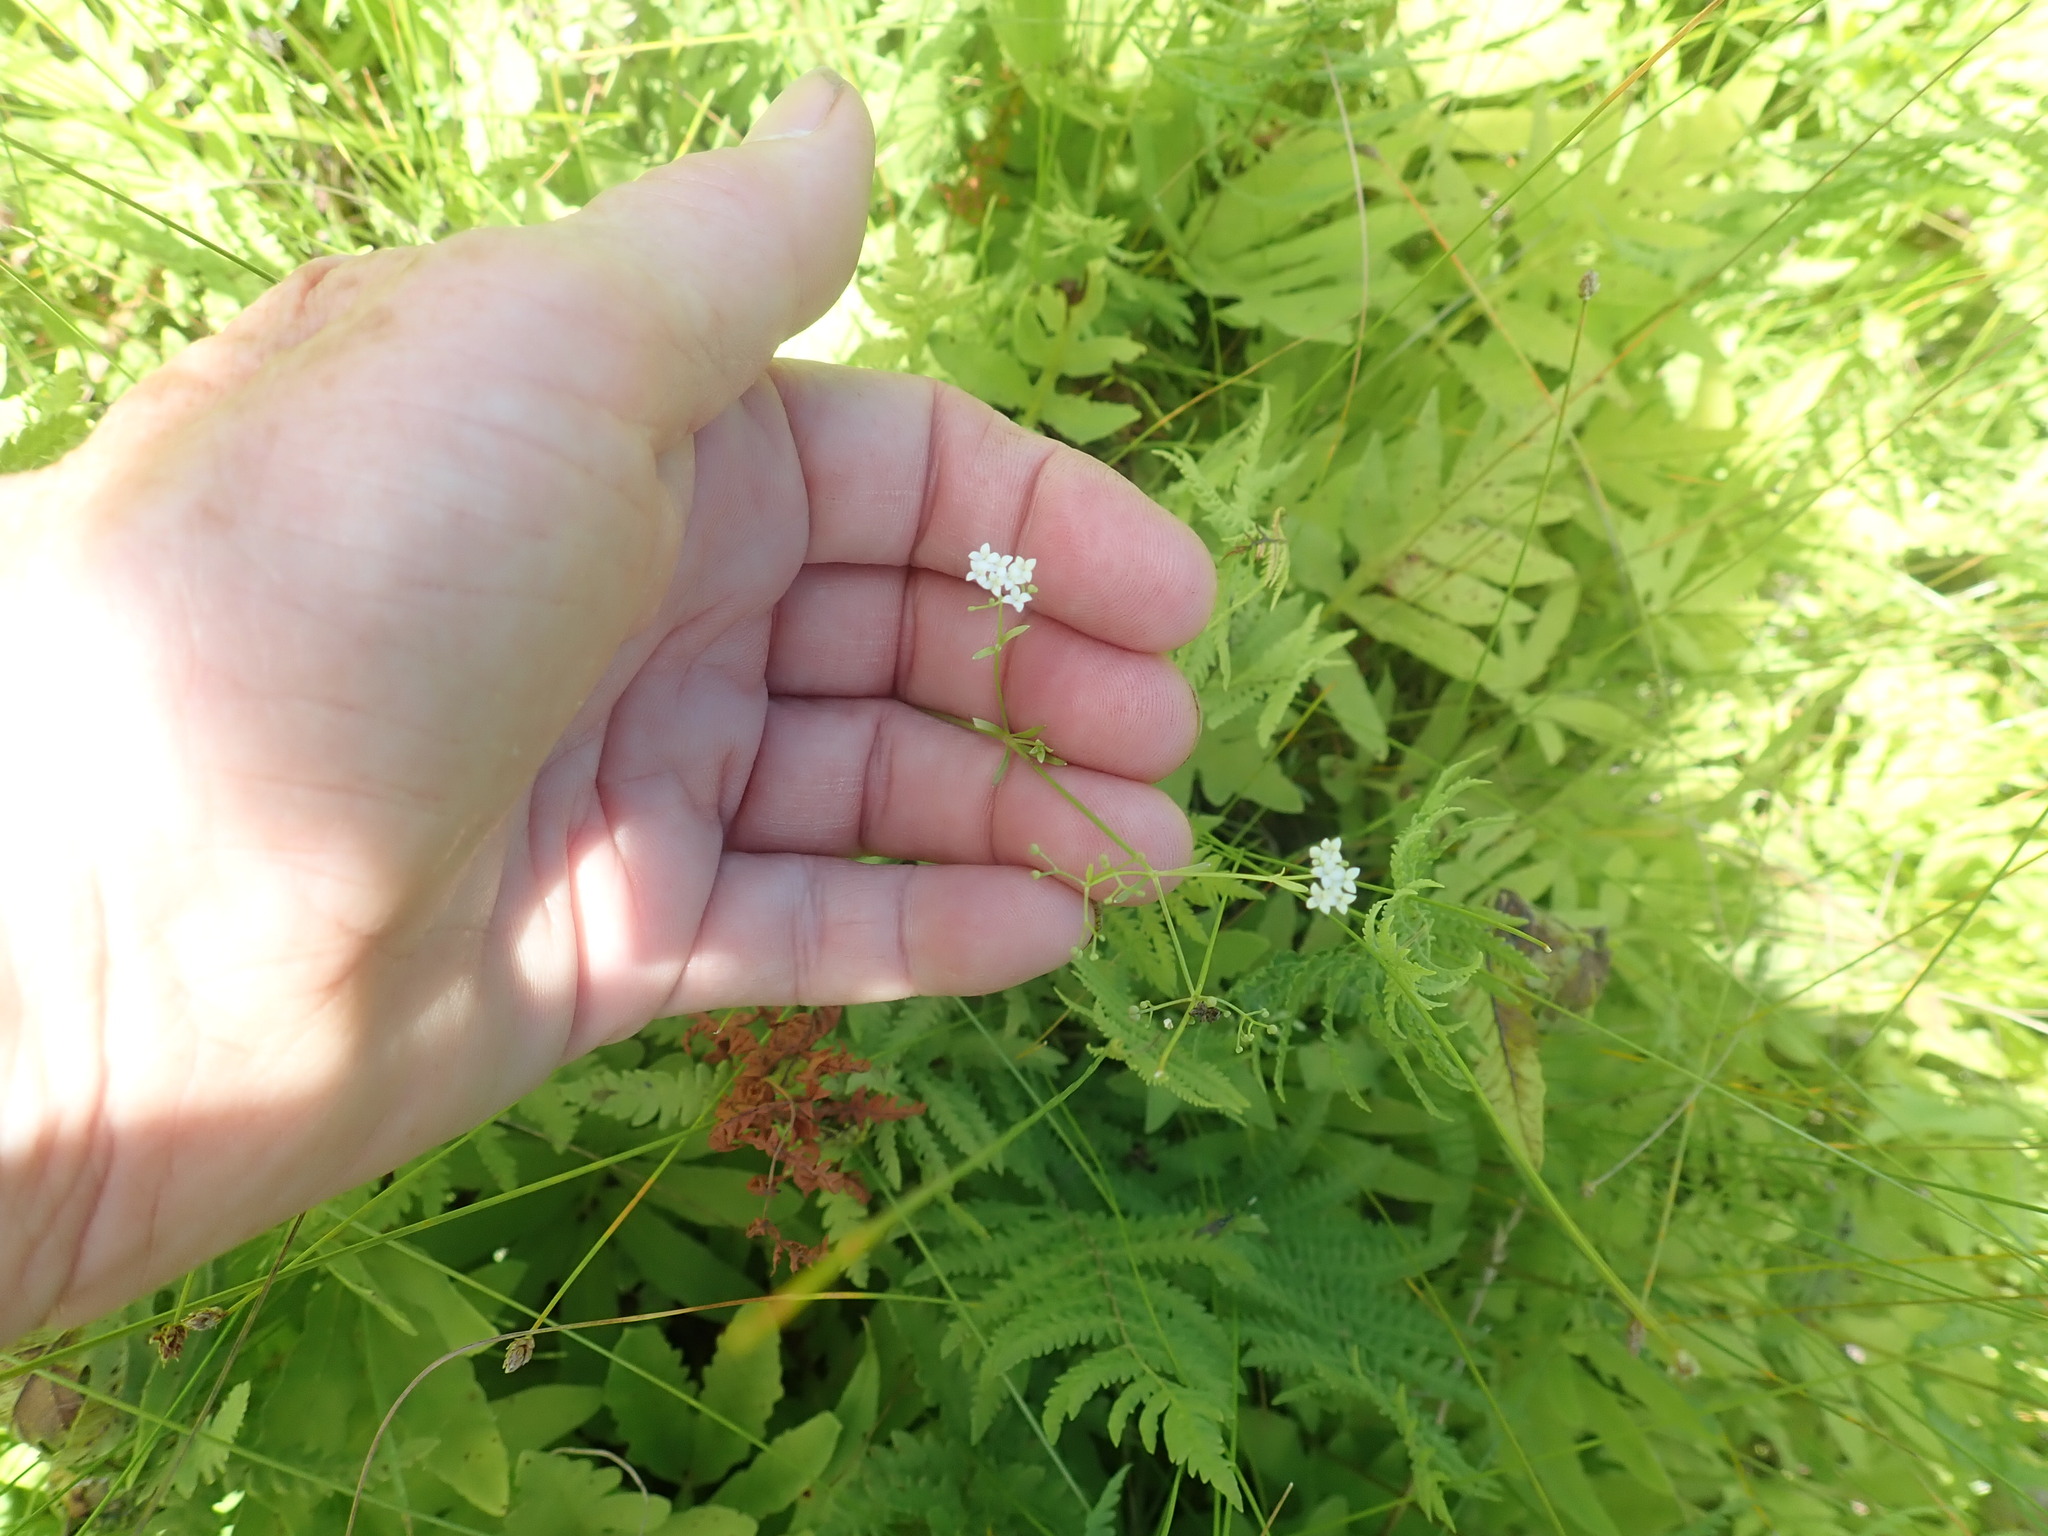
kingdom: Plantae
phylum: Tracheophyta
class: Magnoliopsida
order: Gentianales
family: Rubiaceae
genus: Galium
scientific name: Galium palustre
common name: Common marsh-bedstraw
